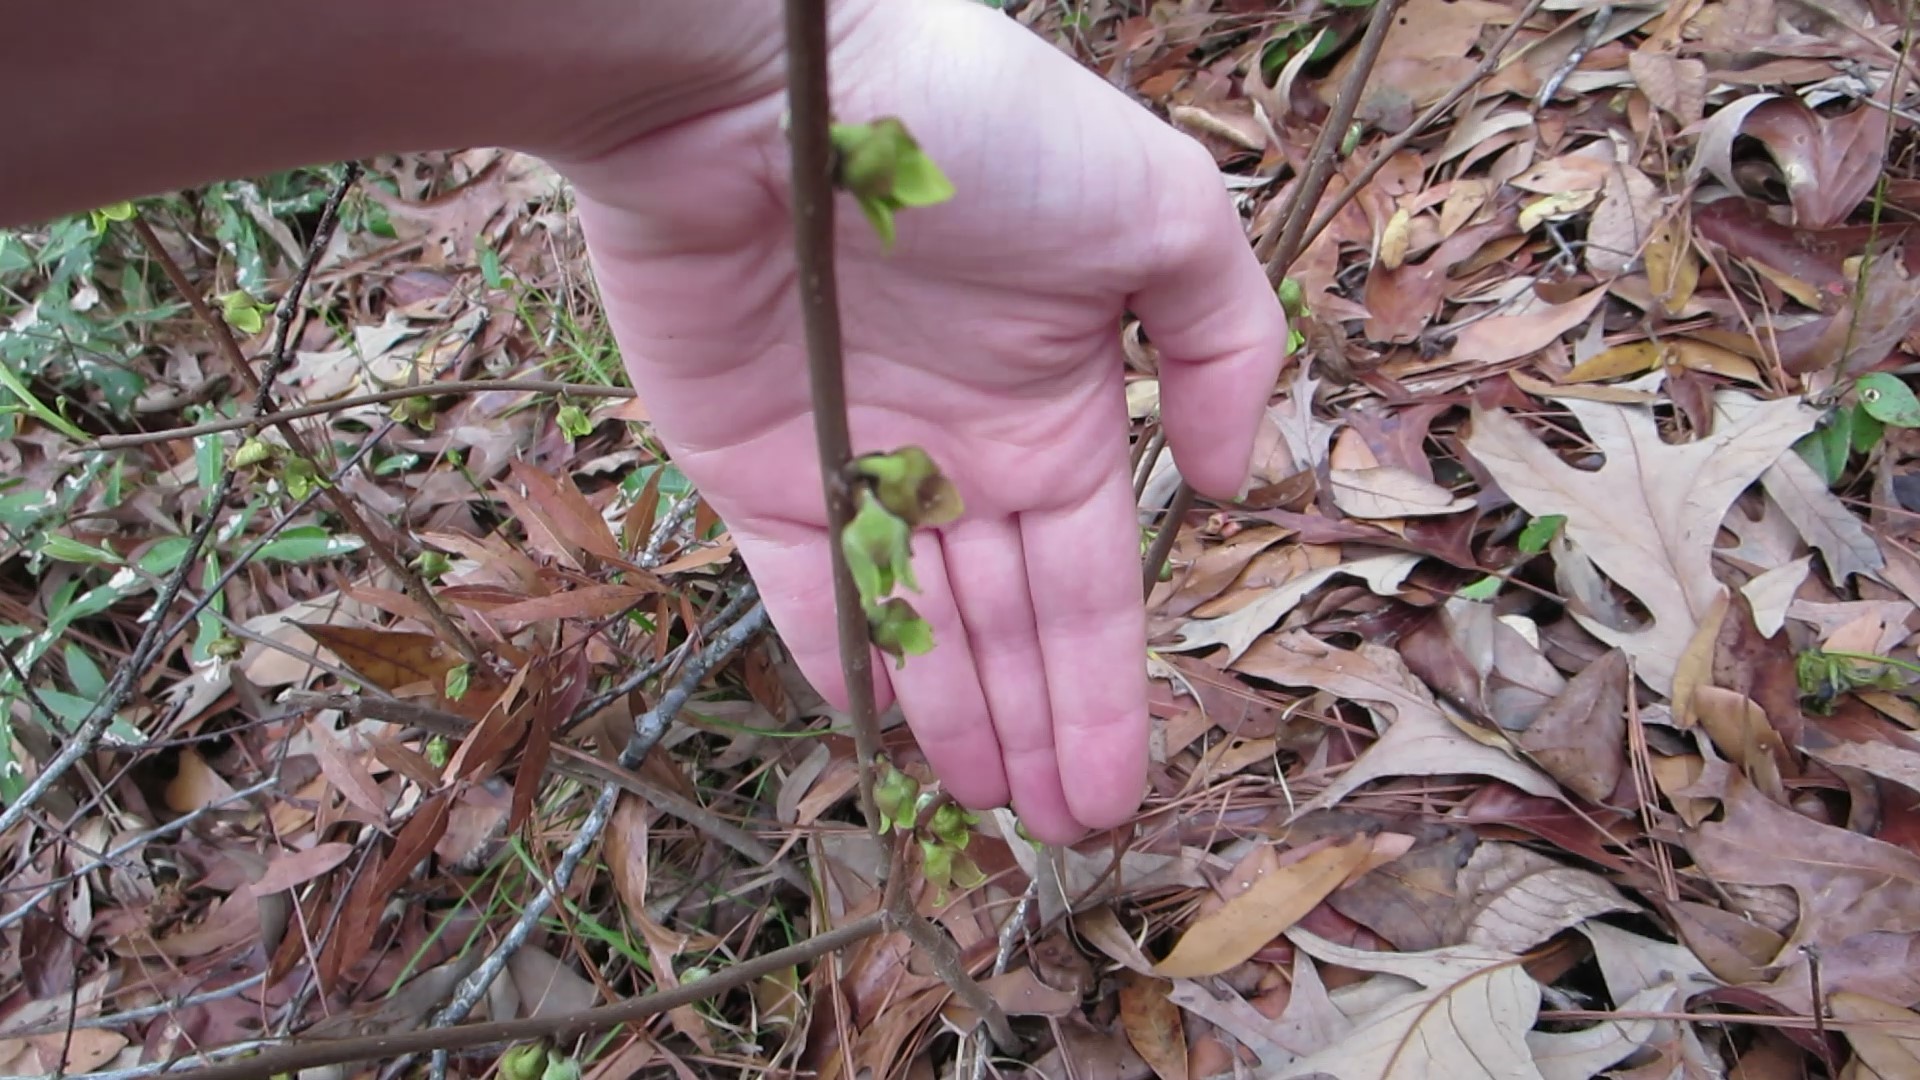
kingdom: Plantae
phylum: Tracheophyta
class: Magnoliopsida
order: Magnoliales
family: Annonaceae
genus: Asimina
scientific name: Asimina parviflora
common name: Dwarf pawpaw
